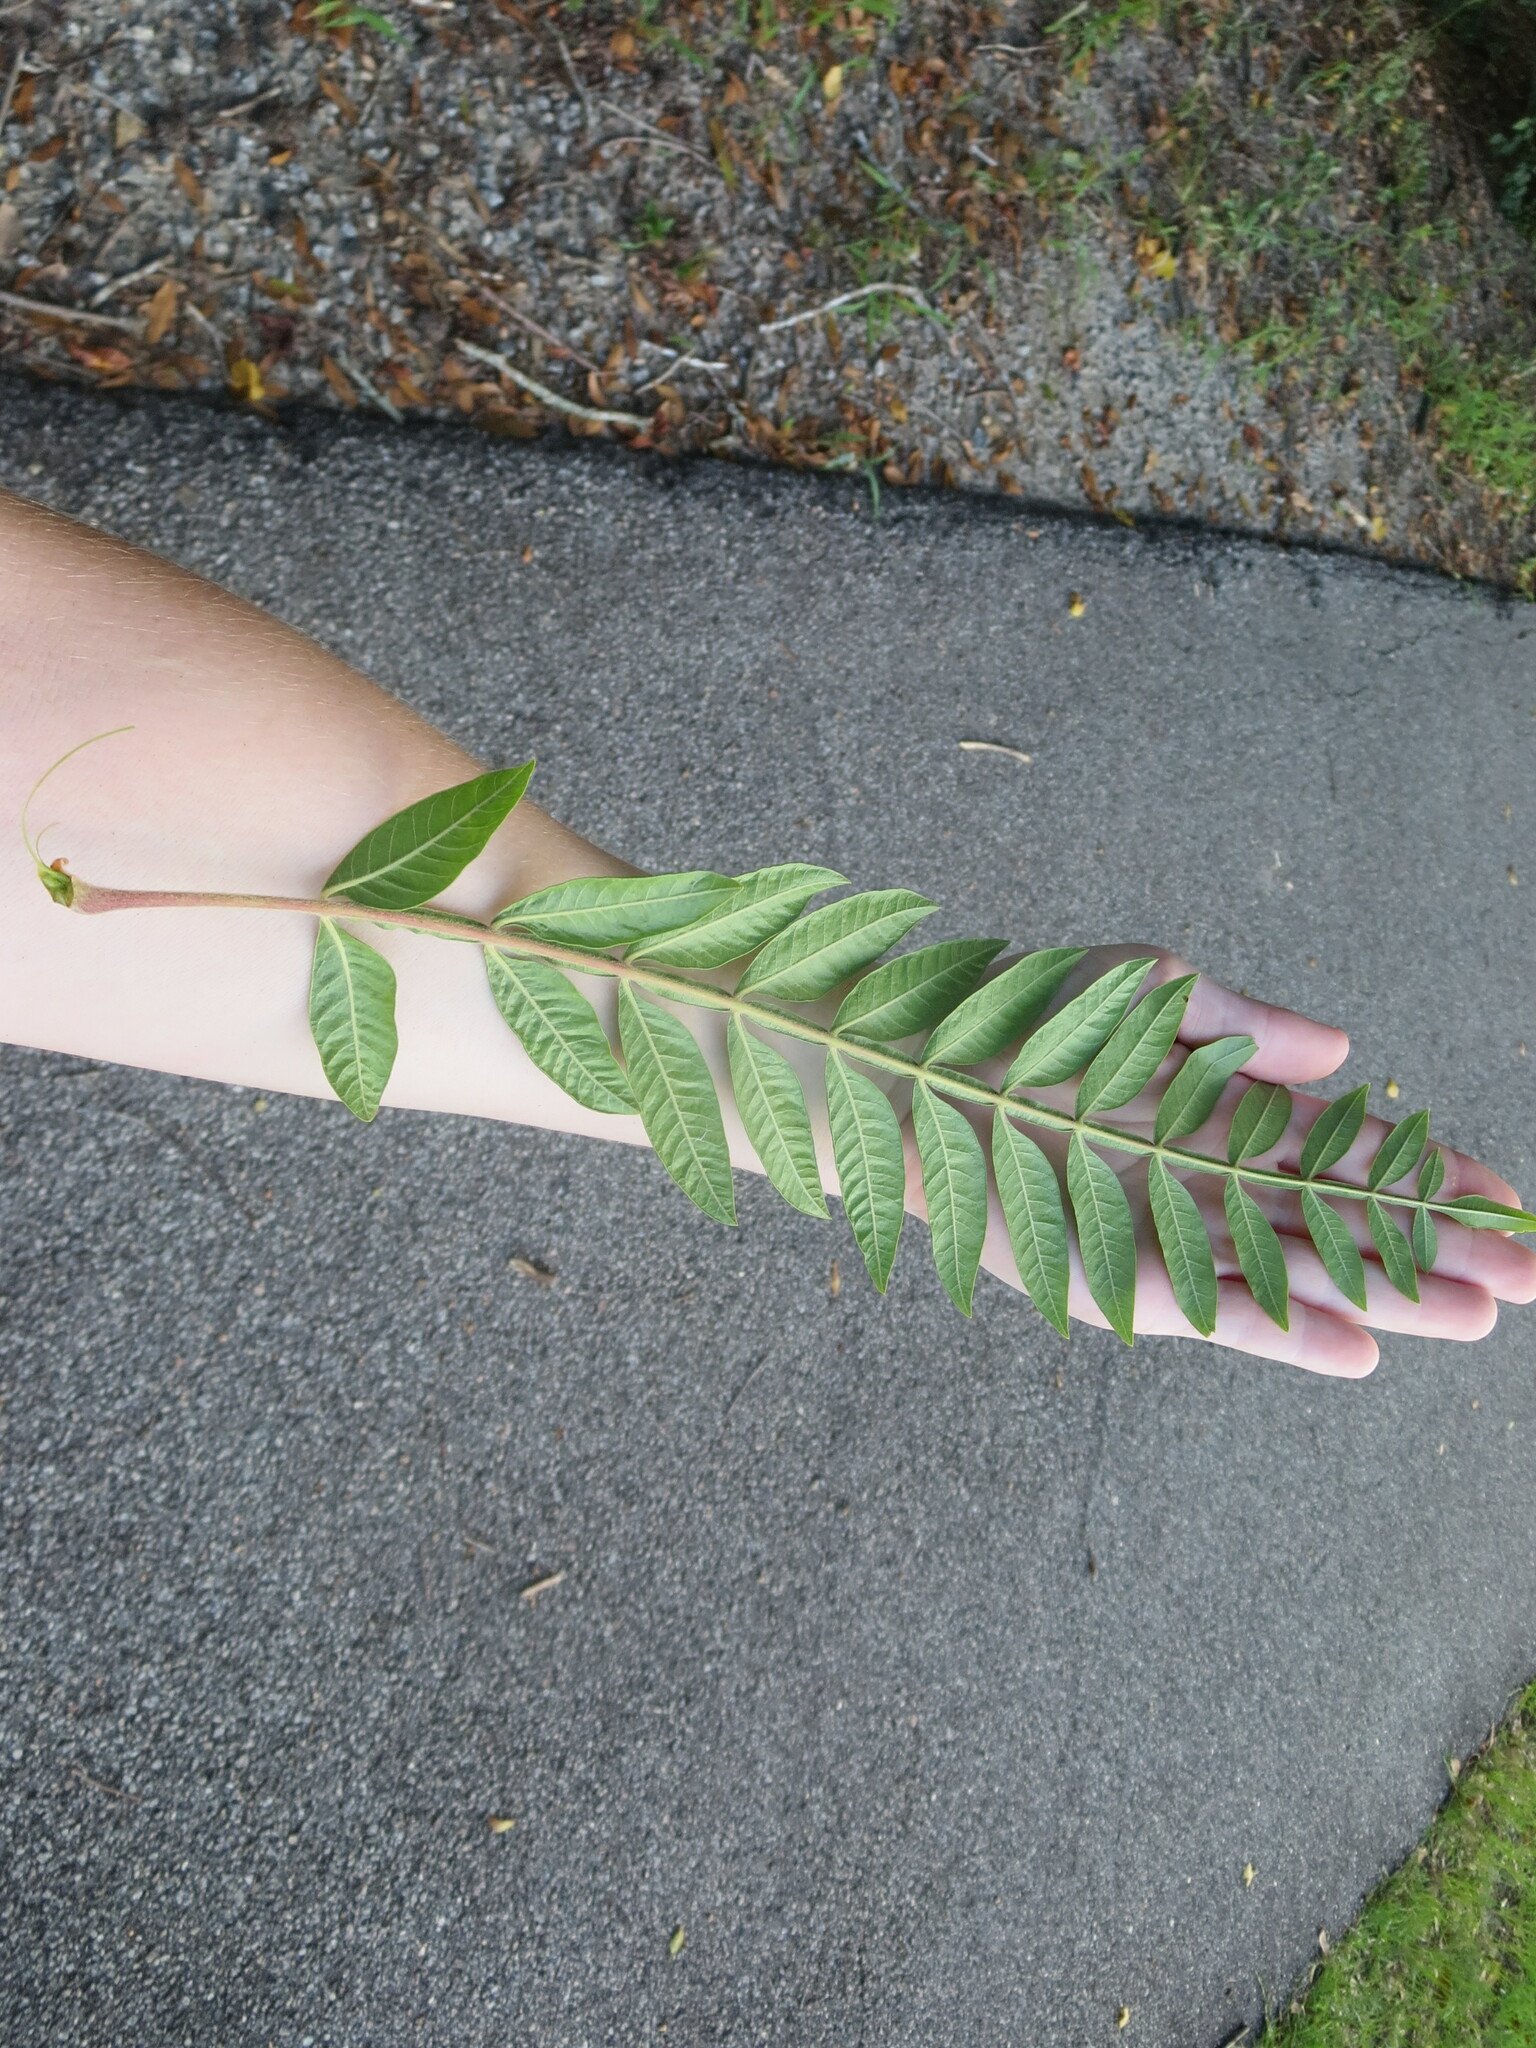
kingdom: Plantae
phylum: Tracheophyta
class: Magnoliopsida
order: Sapindales
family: Anacardiaceae
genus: Rhus
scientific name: Rhus copallina
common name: Shining sumac
